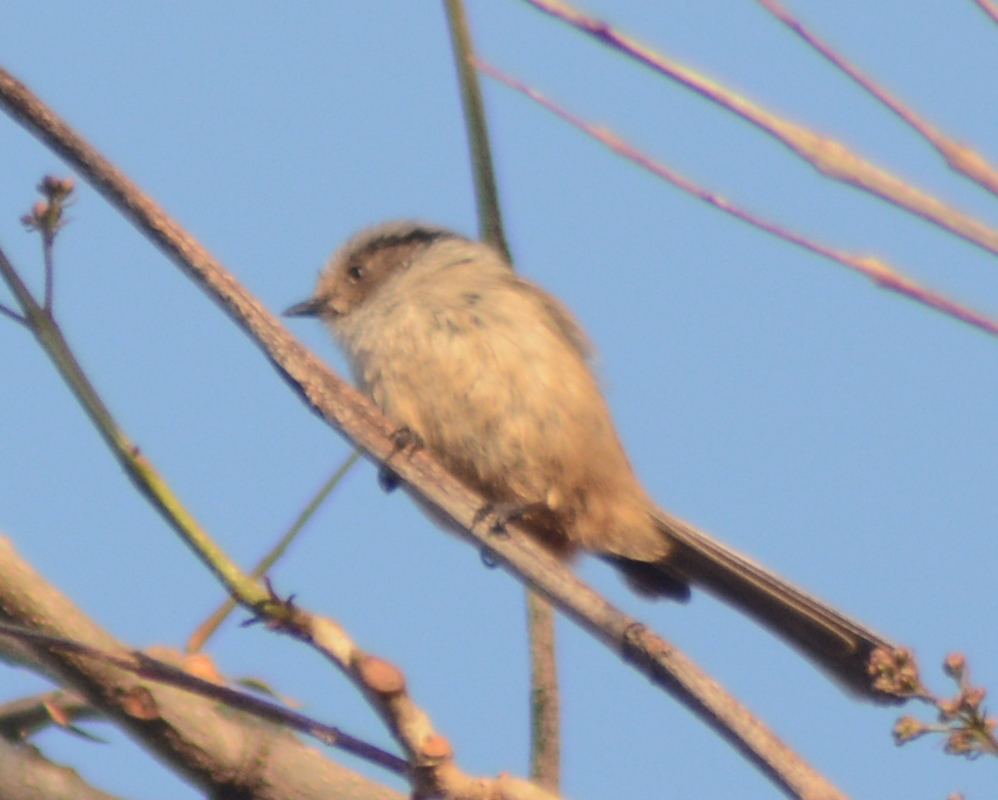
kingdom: Animalia
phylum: Chordata
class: Aves
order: Passeriformes
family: Aegithalidae
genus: Psaltriparus
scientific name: Psaltriparus minimus
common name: American bushtit
